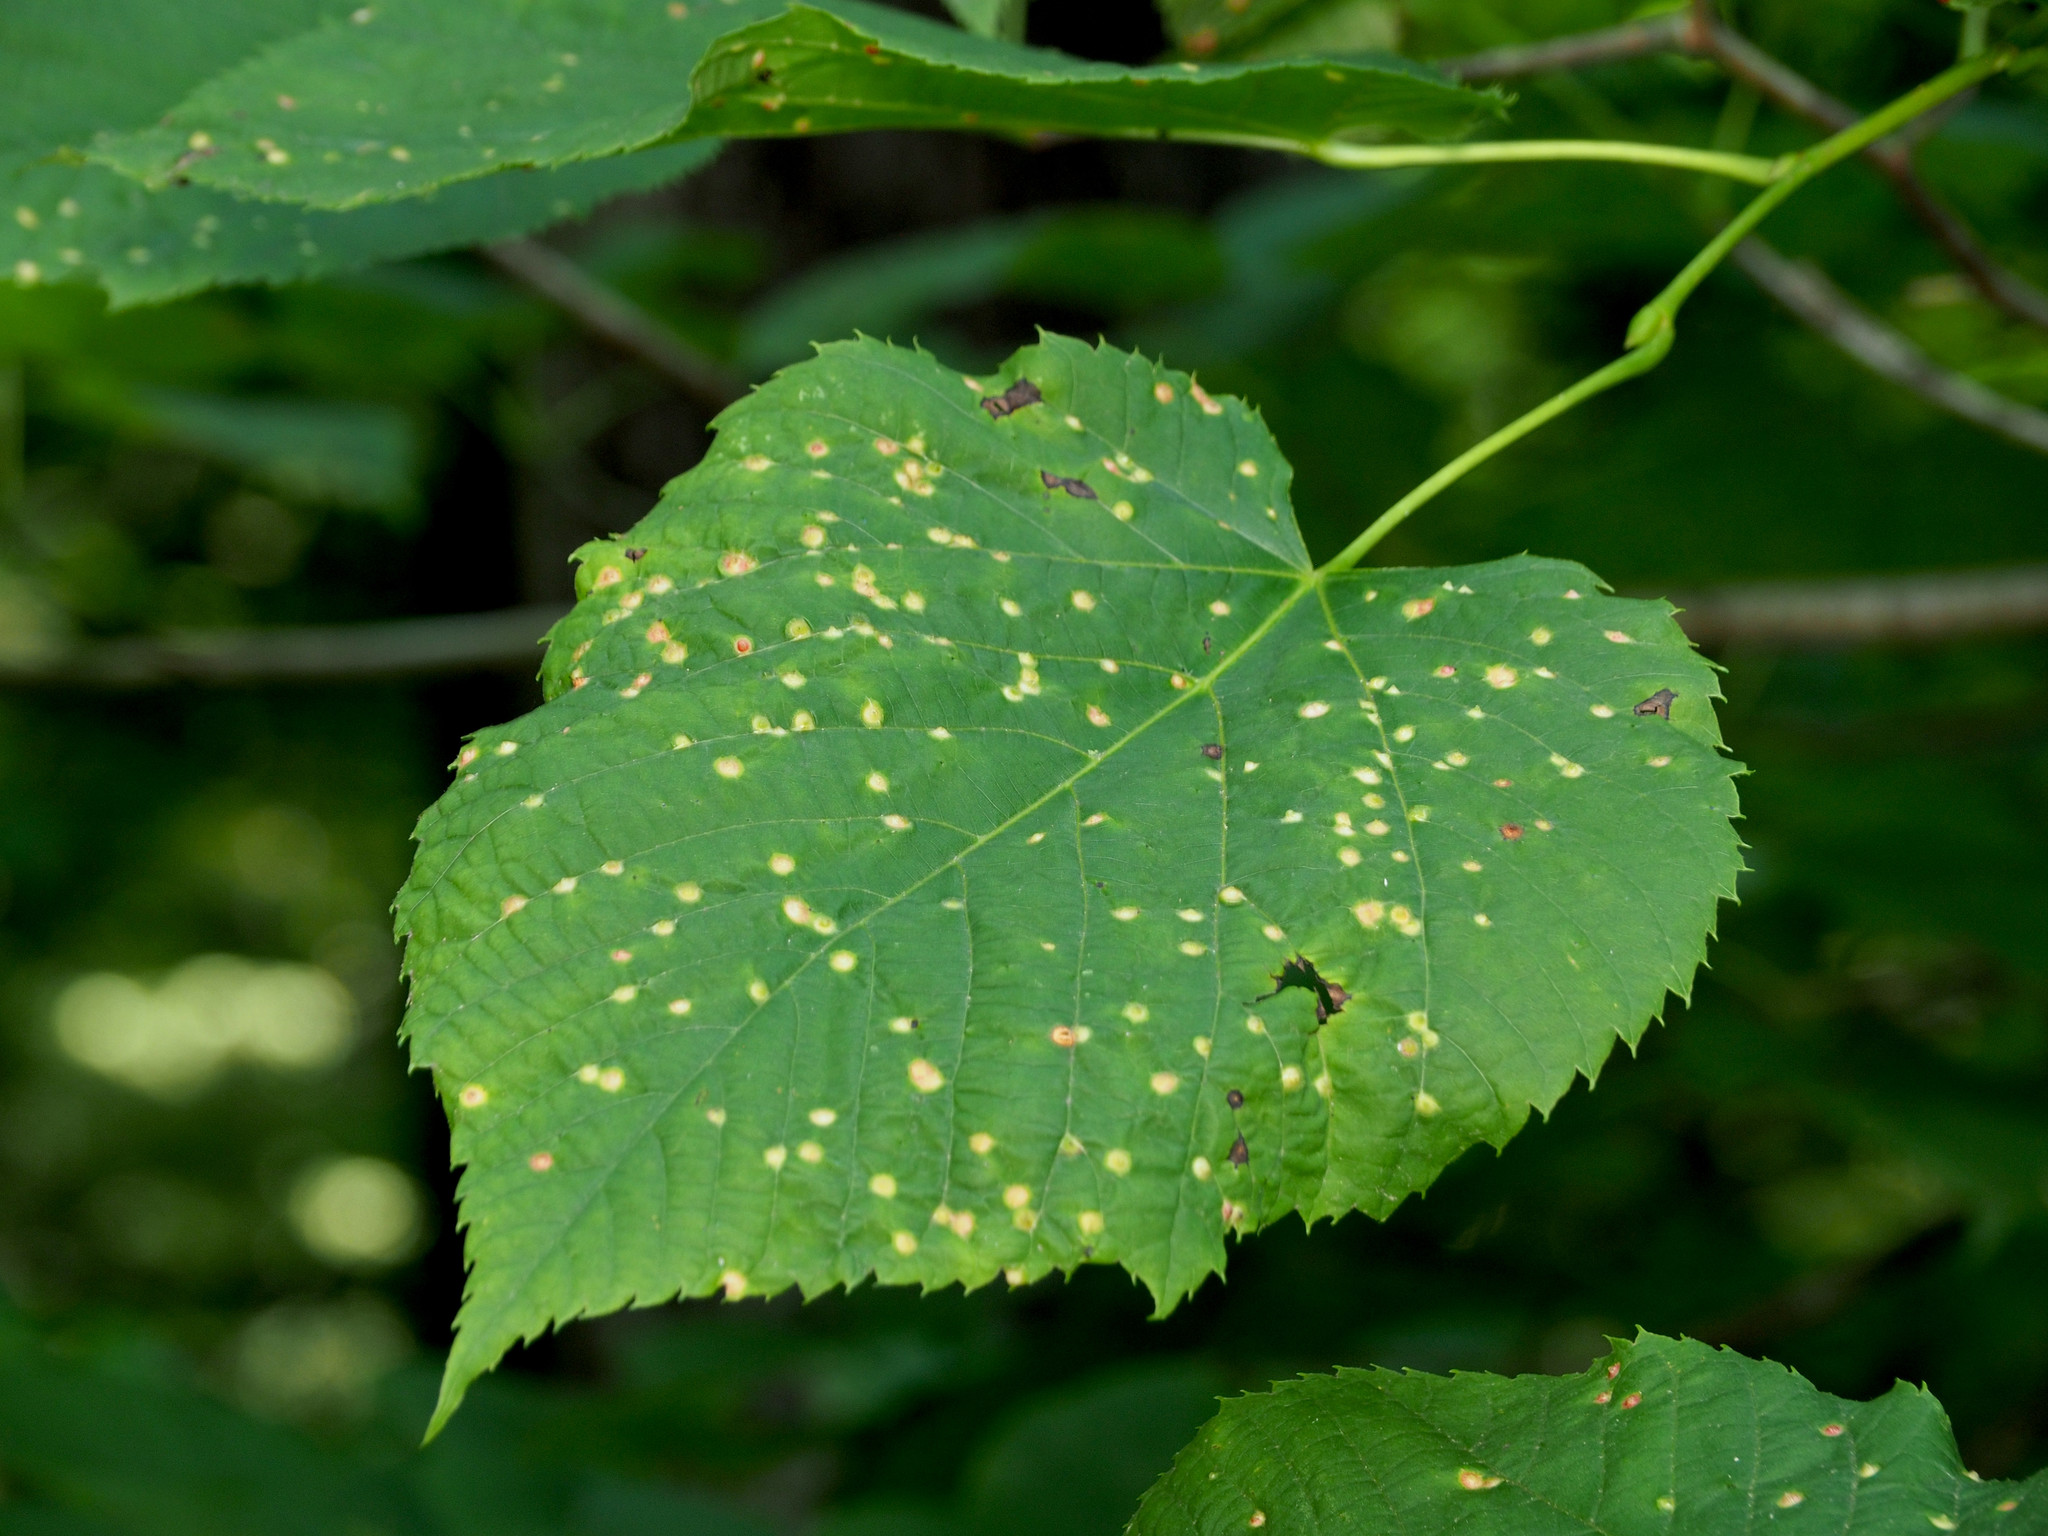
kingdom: Animalia
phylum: Arthropoda
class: Insecta
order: Diptera
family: Cecidomyiidae
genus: Contarinia
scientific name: Contarinia verrucicola
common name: Linden wart gall midge
